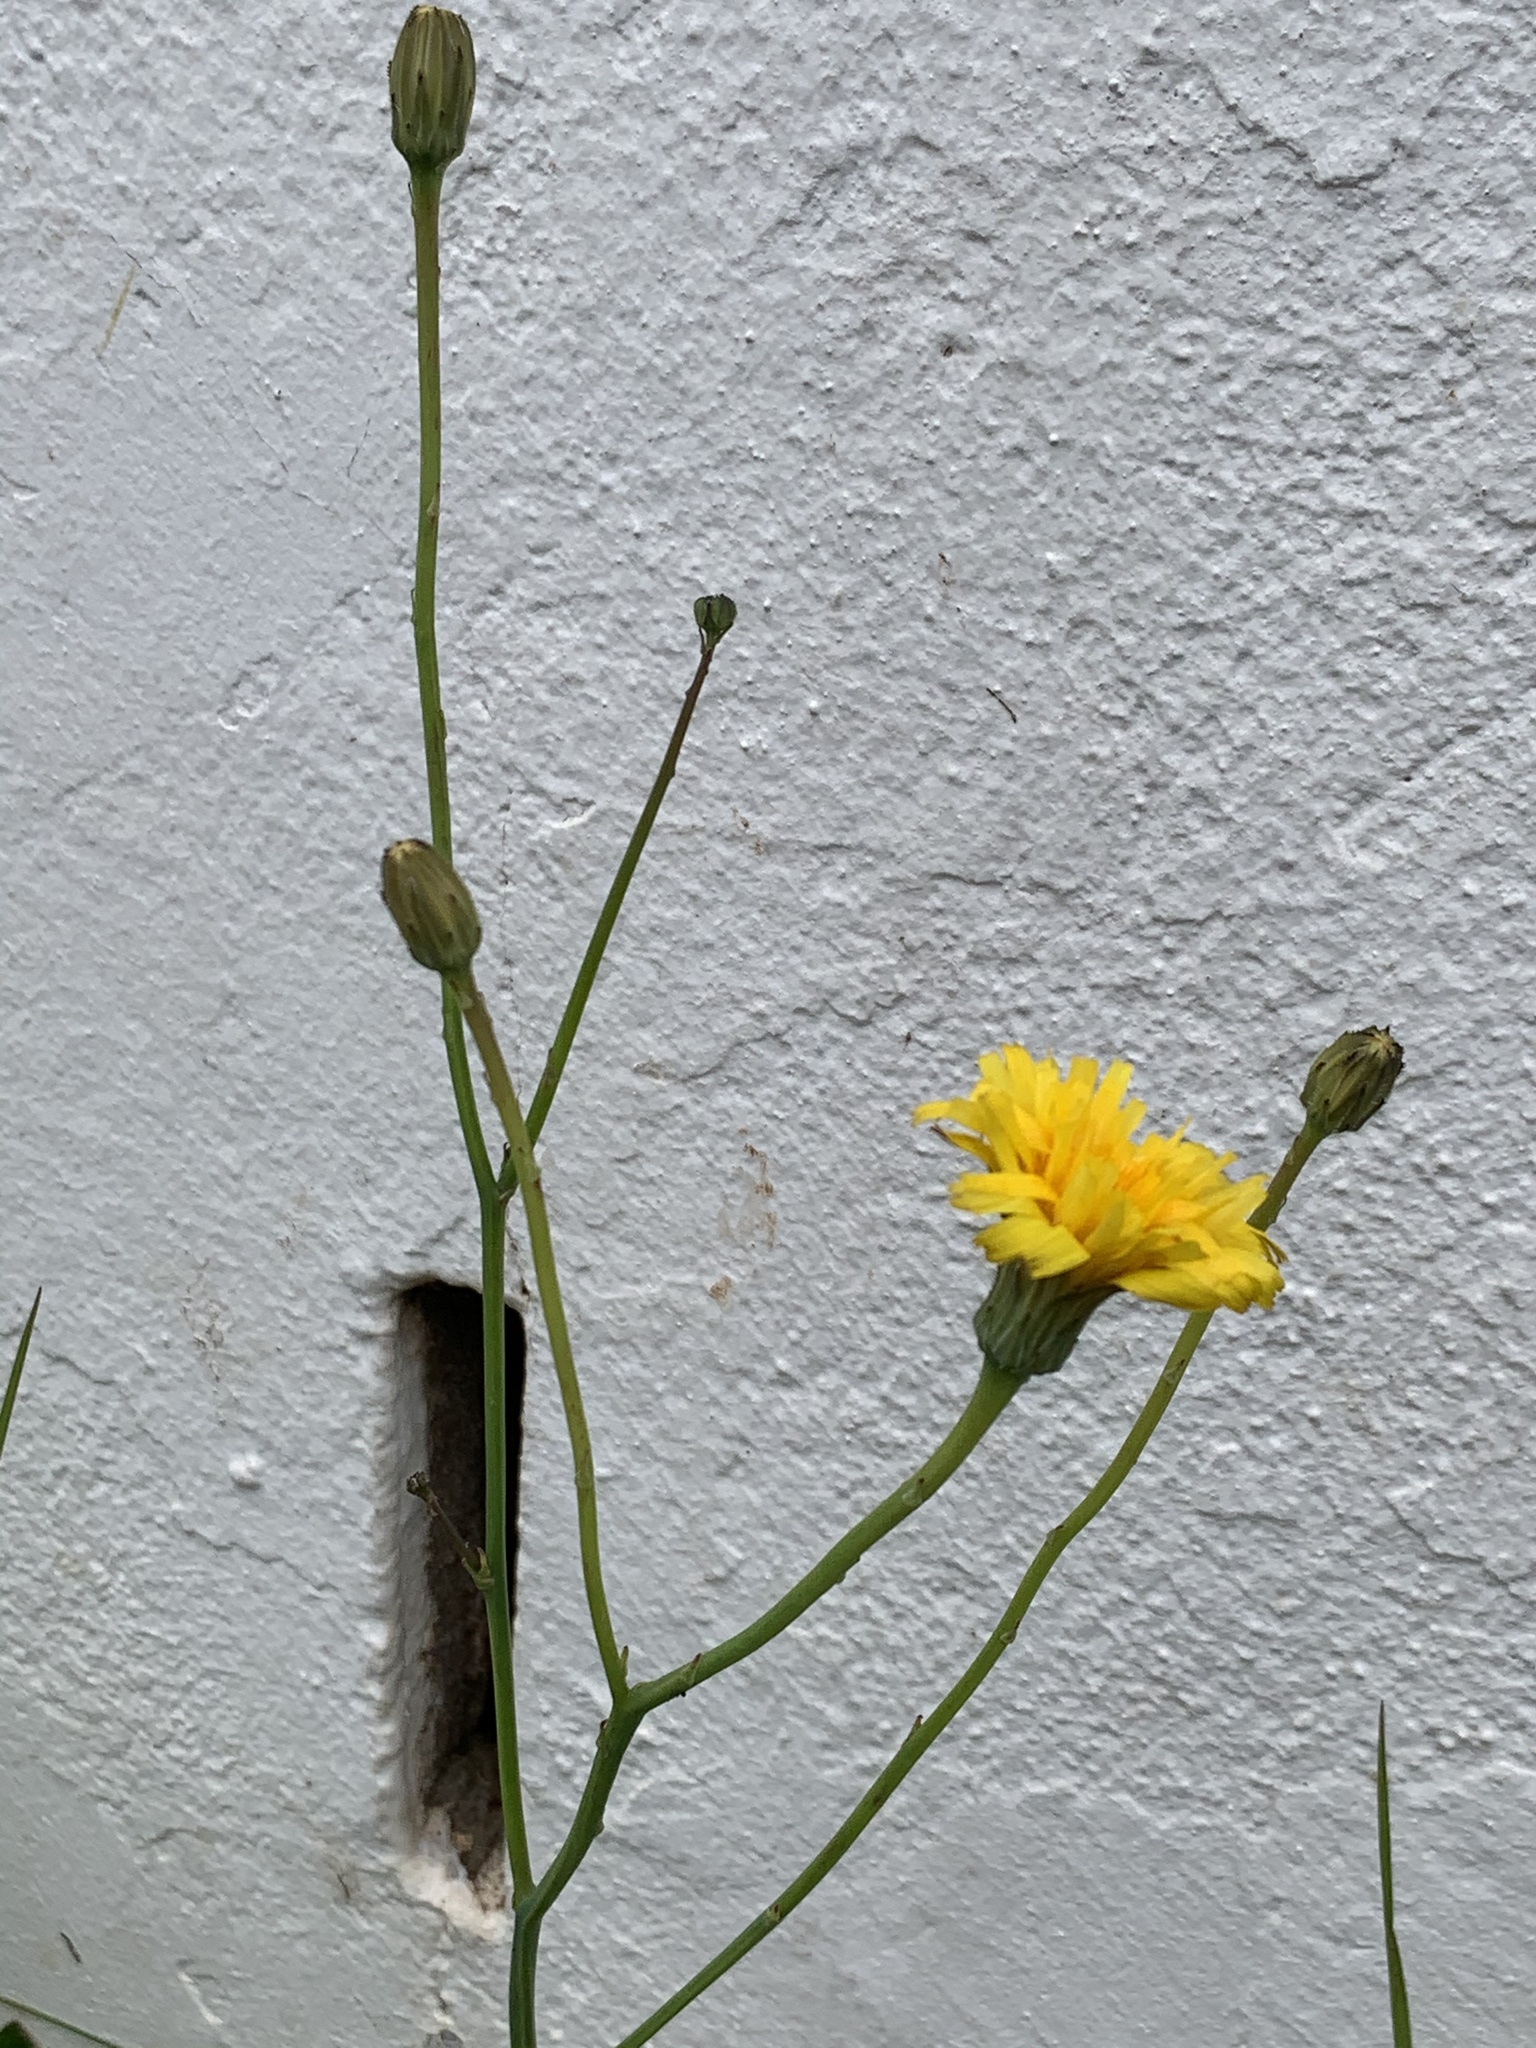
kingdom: Plantae
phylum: Tracheophyta
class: Magnoliopsida
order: Asterales
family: Asteraceae
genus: Hypochaeris
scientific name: Hypochaeris radicata
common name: Flatweed
